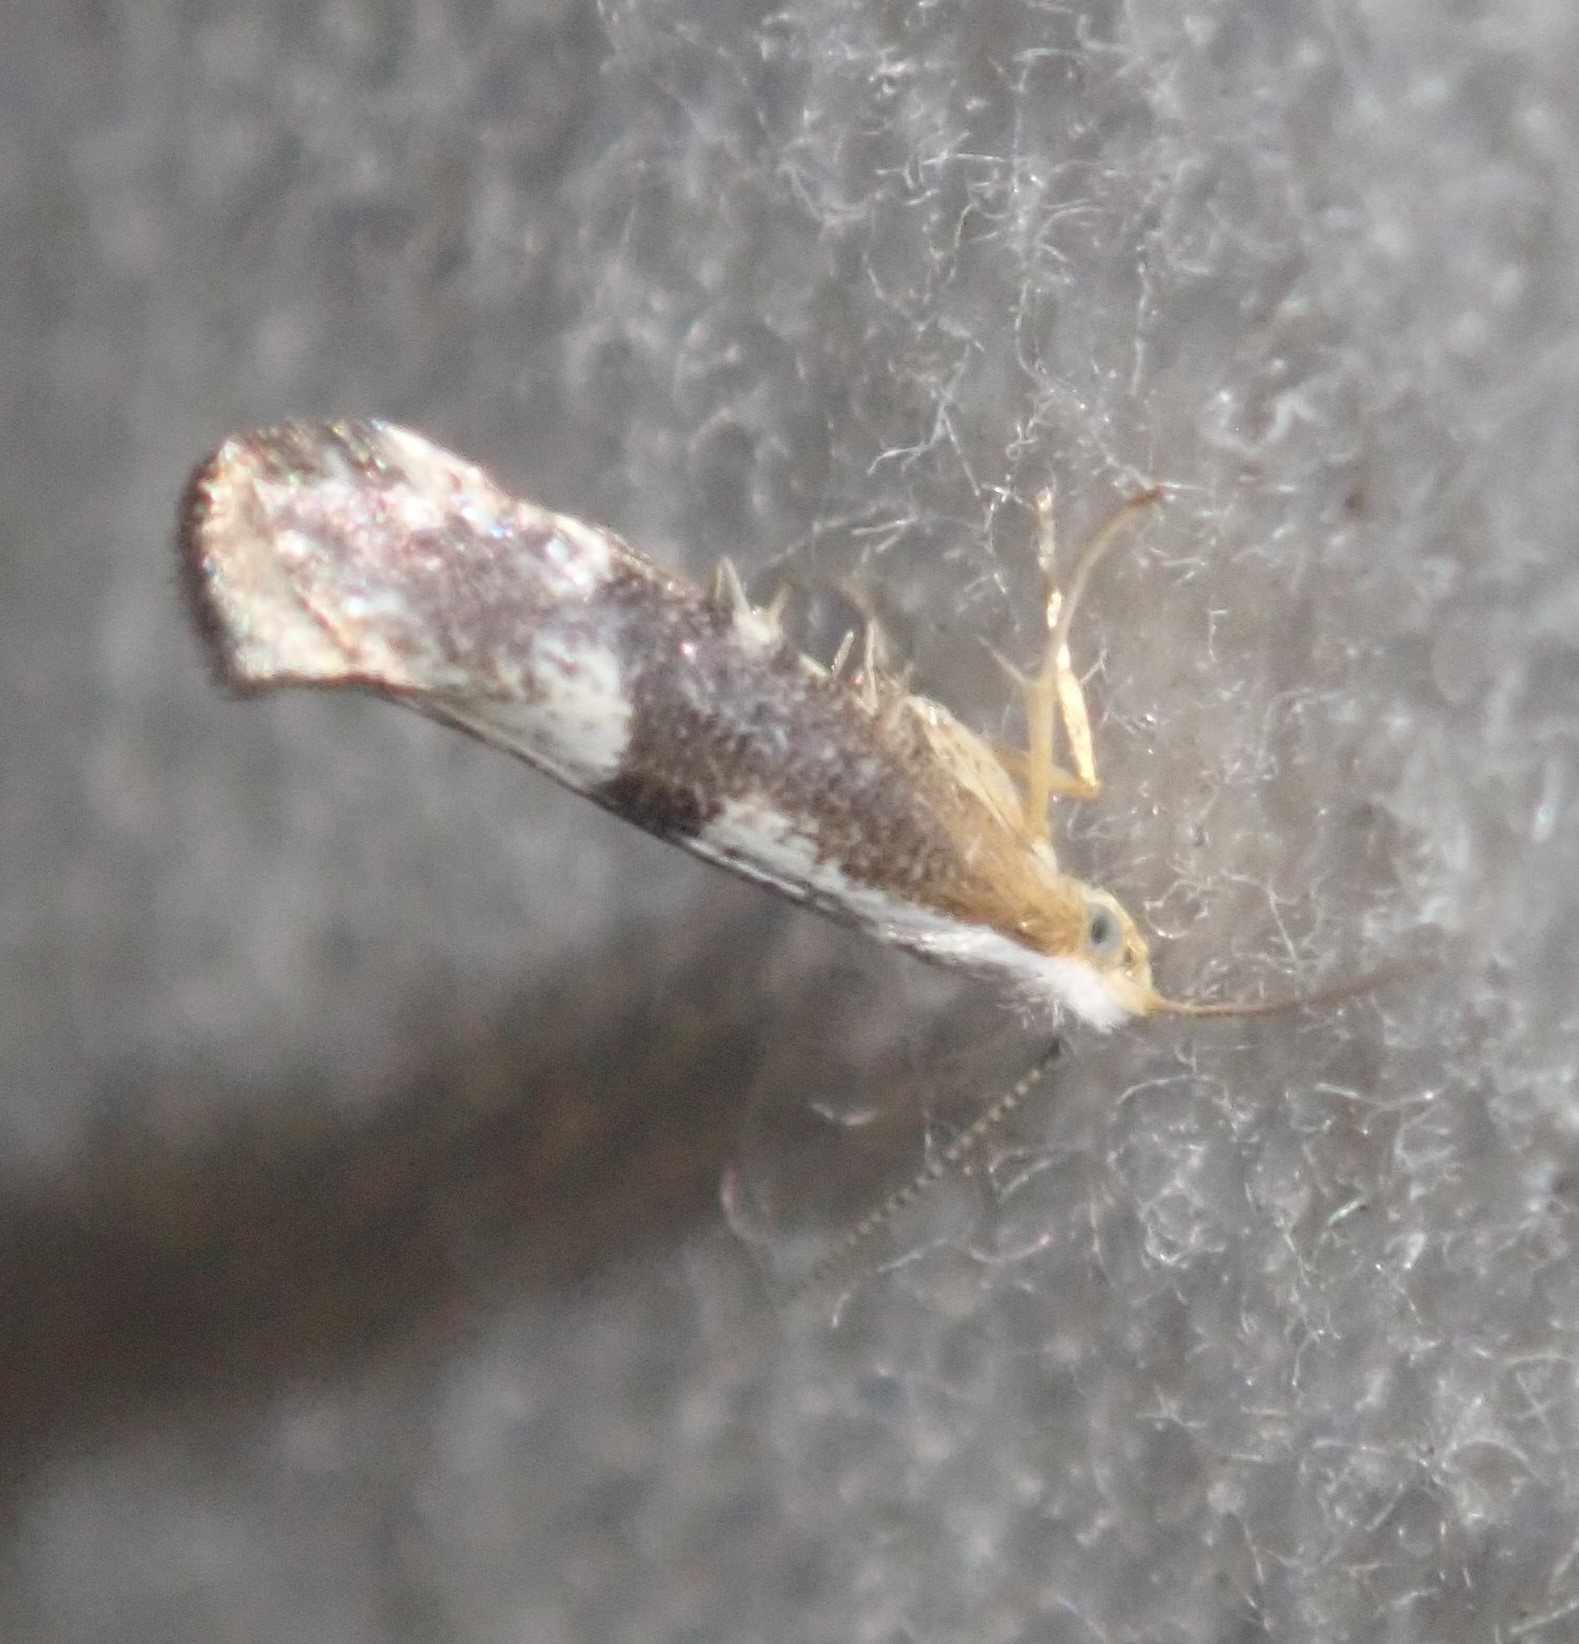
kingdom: Animalia
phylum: Arthropoda
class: Insecta
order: Lepidoptera
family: Argyresthiidae
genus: Argyresthia
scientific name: Argyresthia spinosella
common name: Blackthorn argent
